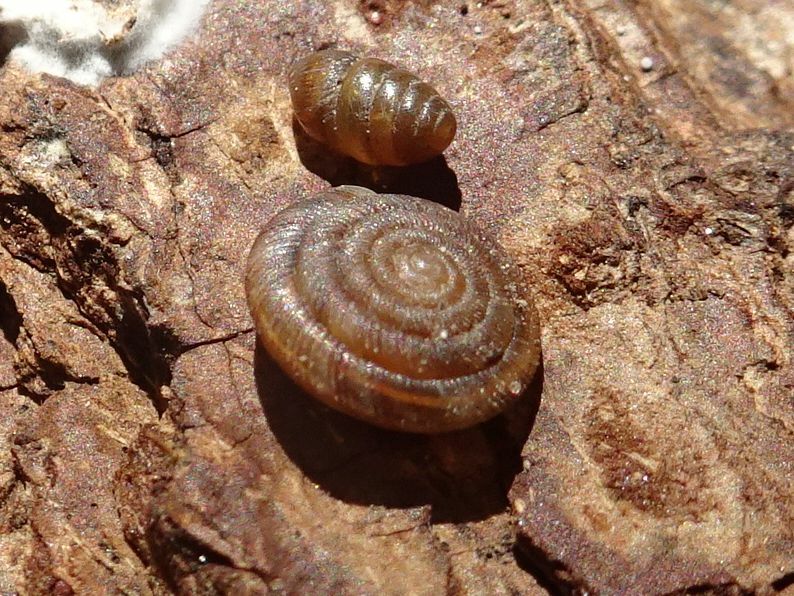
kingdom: Animalia
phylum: Mollusca
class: Gastropoda
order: Stylommatophora
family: Discidae
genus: Discus
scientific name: Discus rotundatus
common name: Rounded snail
